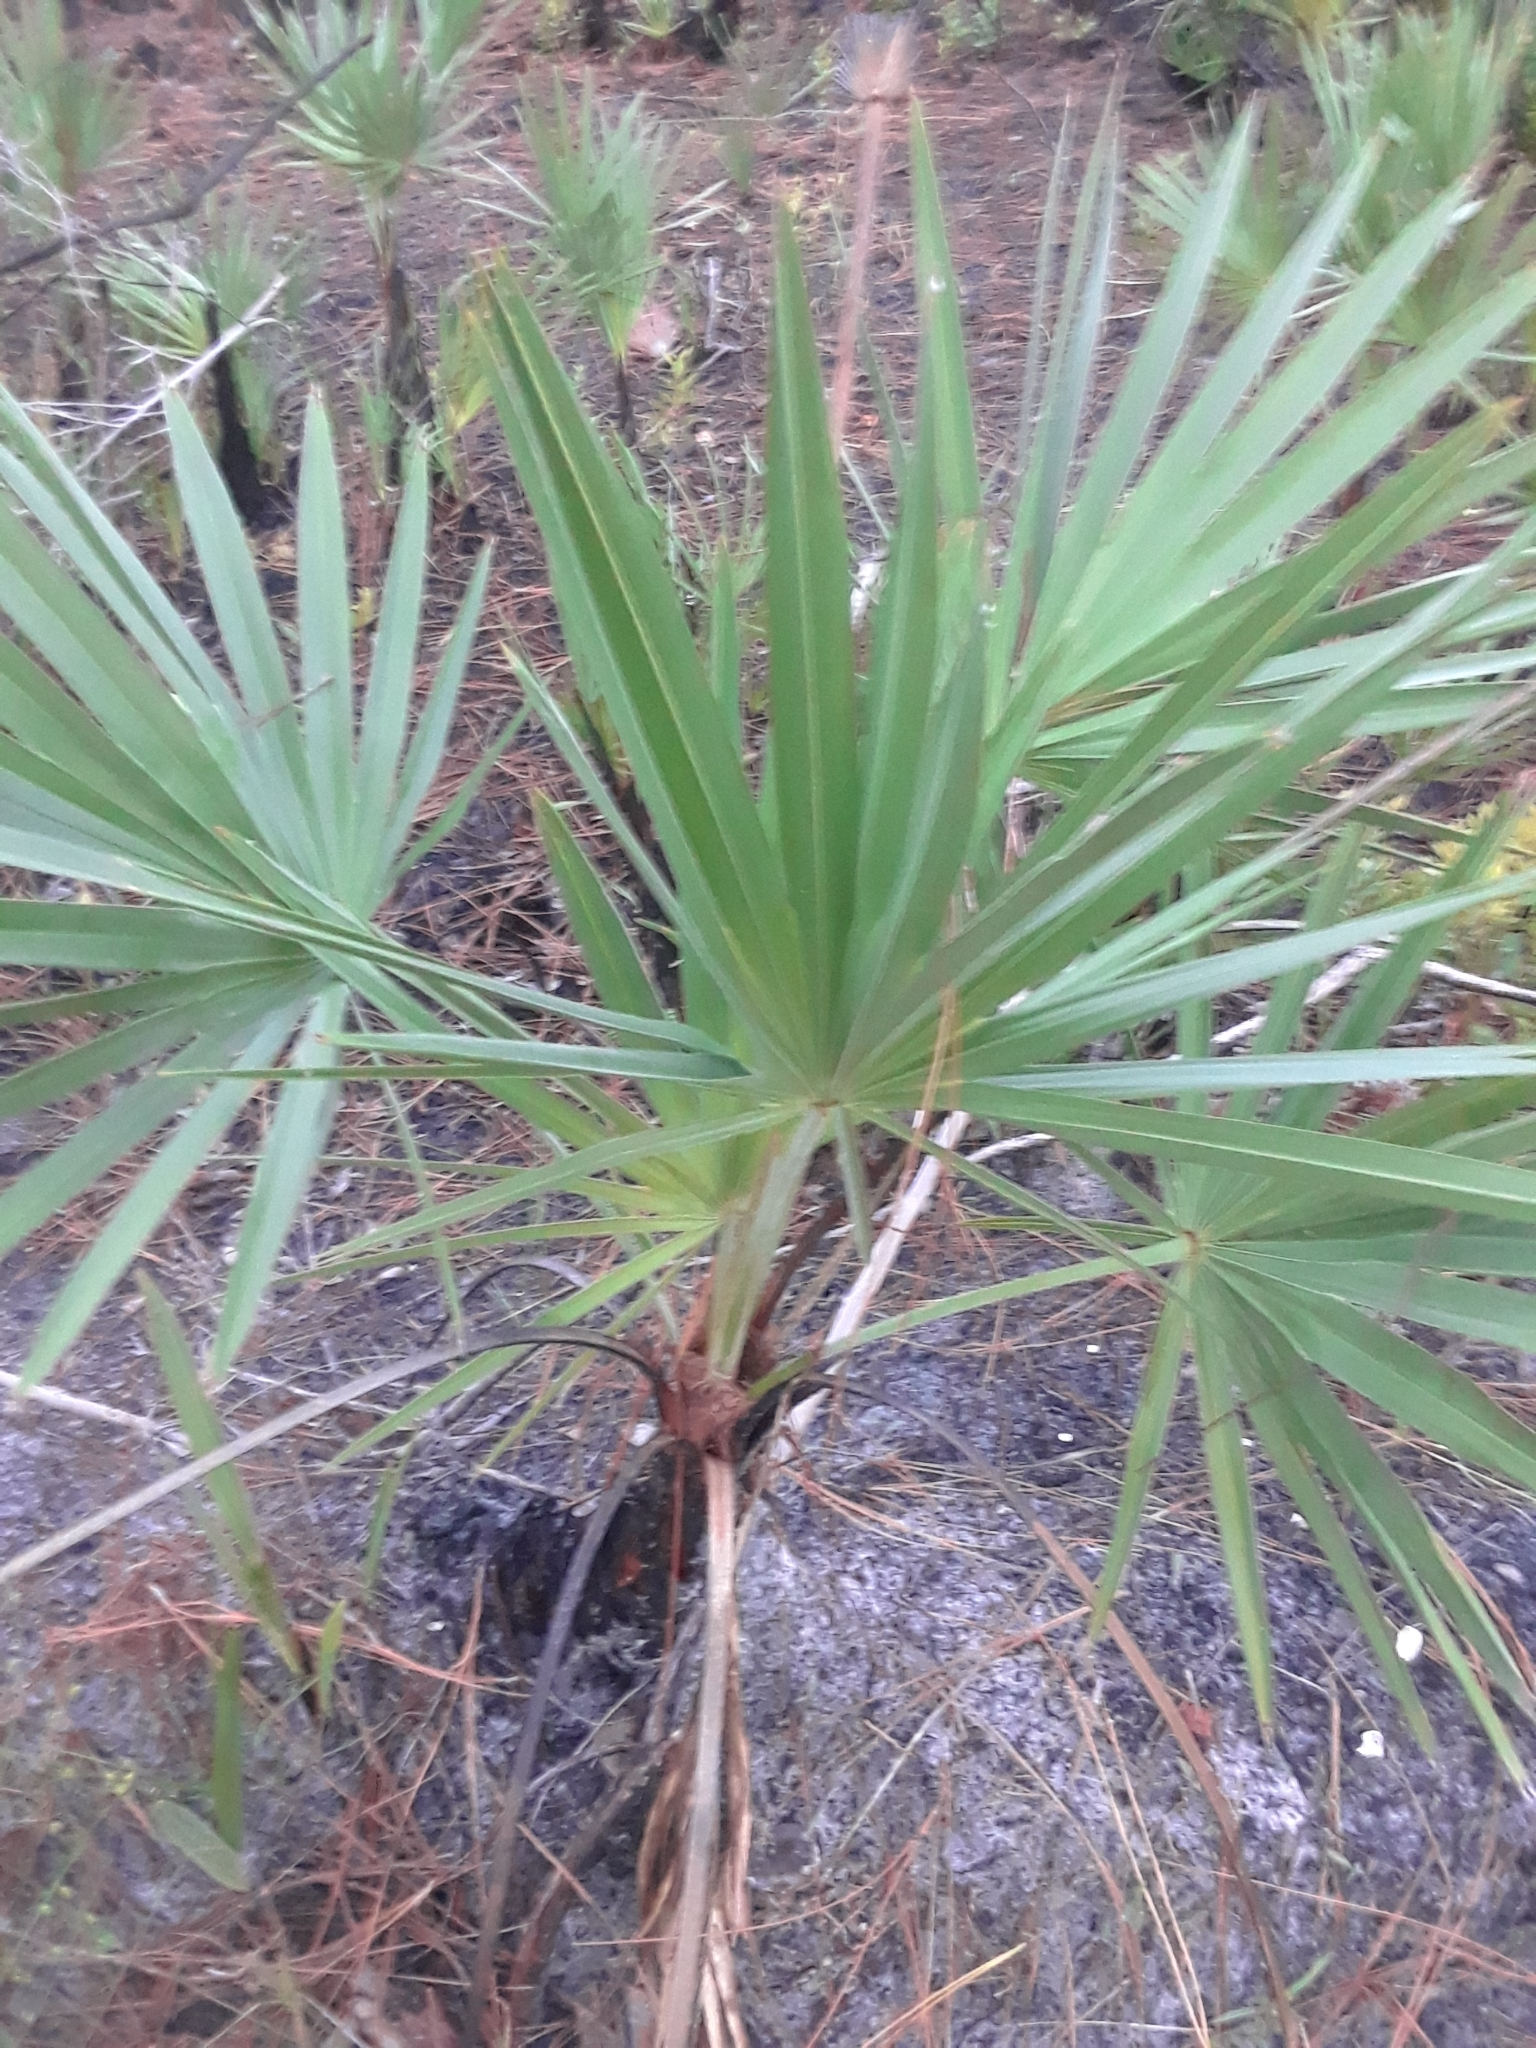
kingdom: Plantae
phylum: Tracheophyta
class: Liliopsida
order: Arecales
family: Arecaceae
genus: Serenoa
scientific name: Serenoa repens
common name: Saw-palmetto
